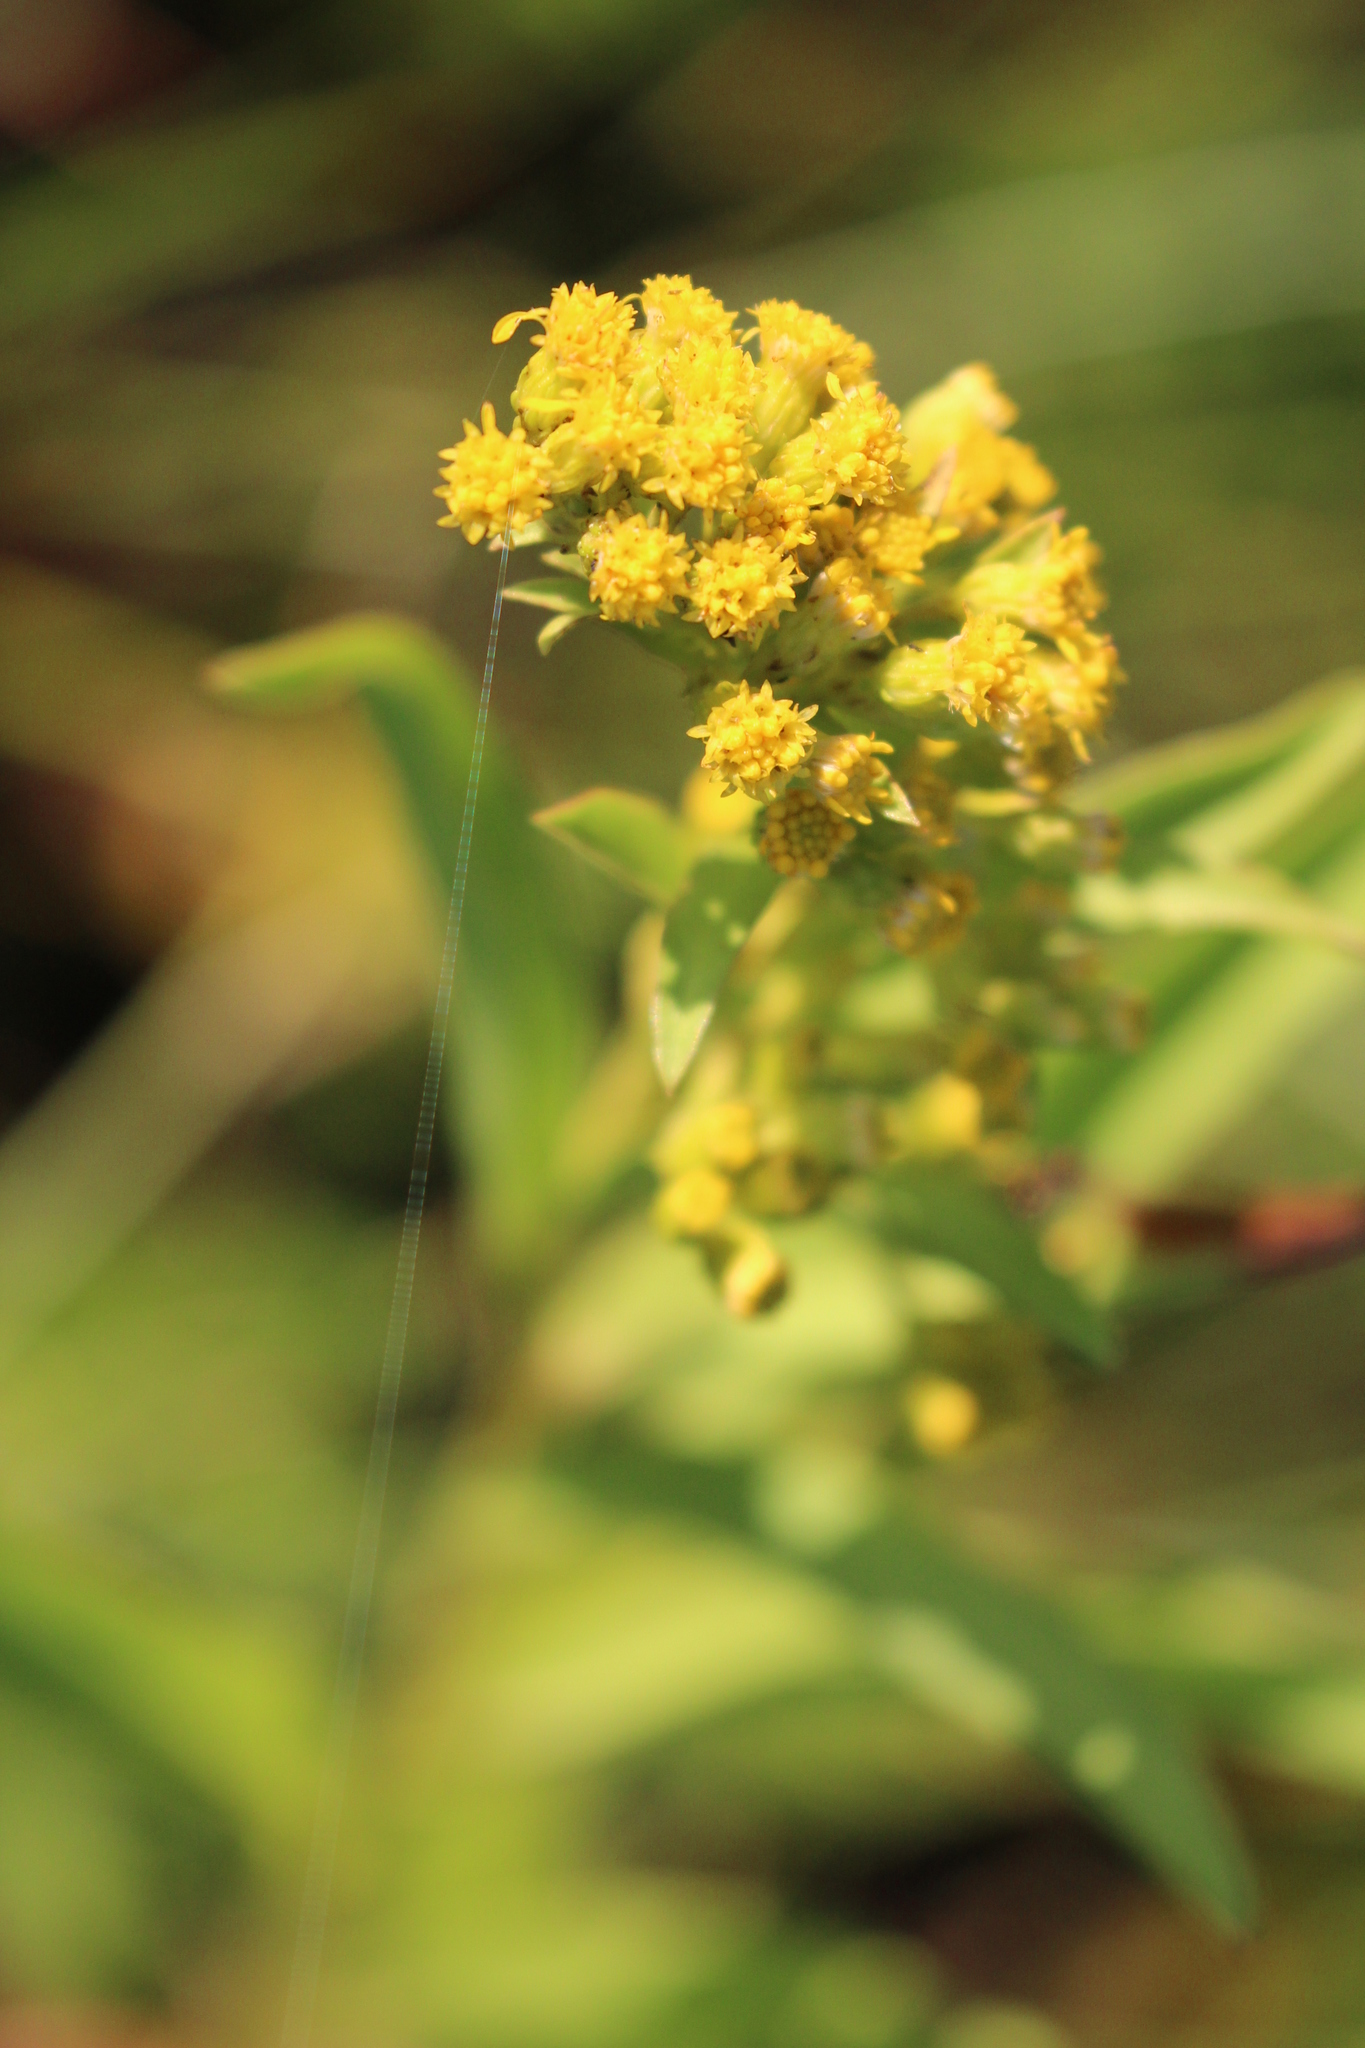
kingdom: Plantae
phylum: Tracheophyta
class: Magnoliopsida
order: Asterales
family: Asteraceae
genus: Solidago
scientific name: Solidago sempervirens
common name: Salt-marsh goldenrod
